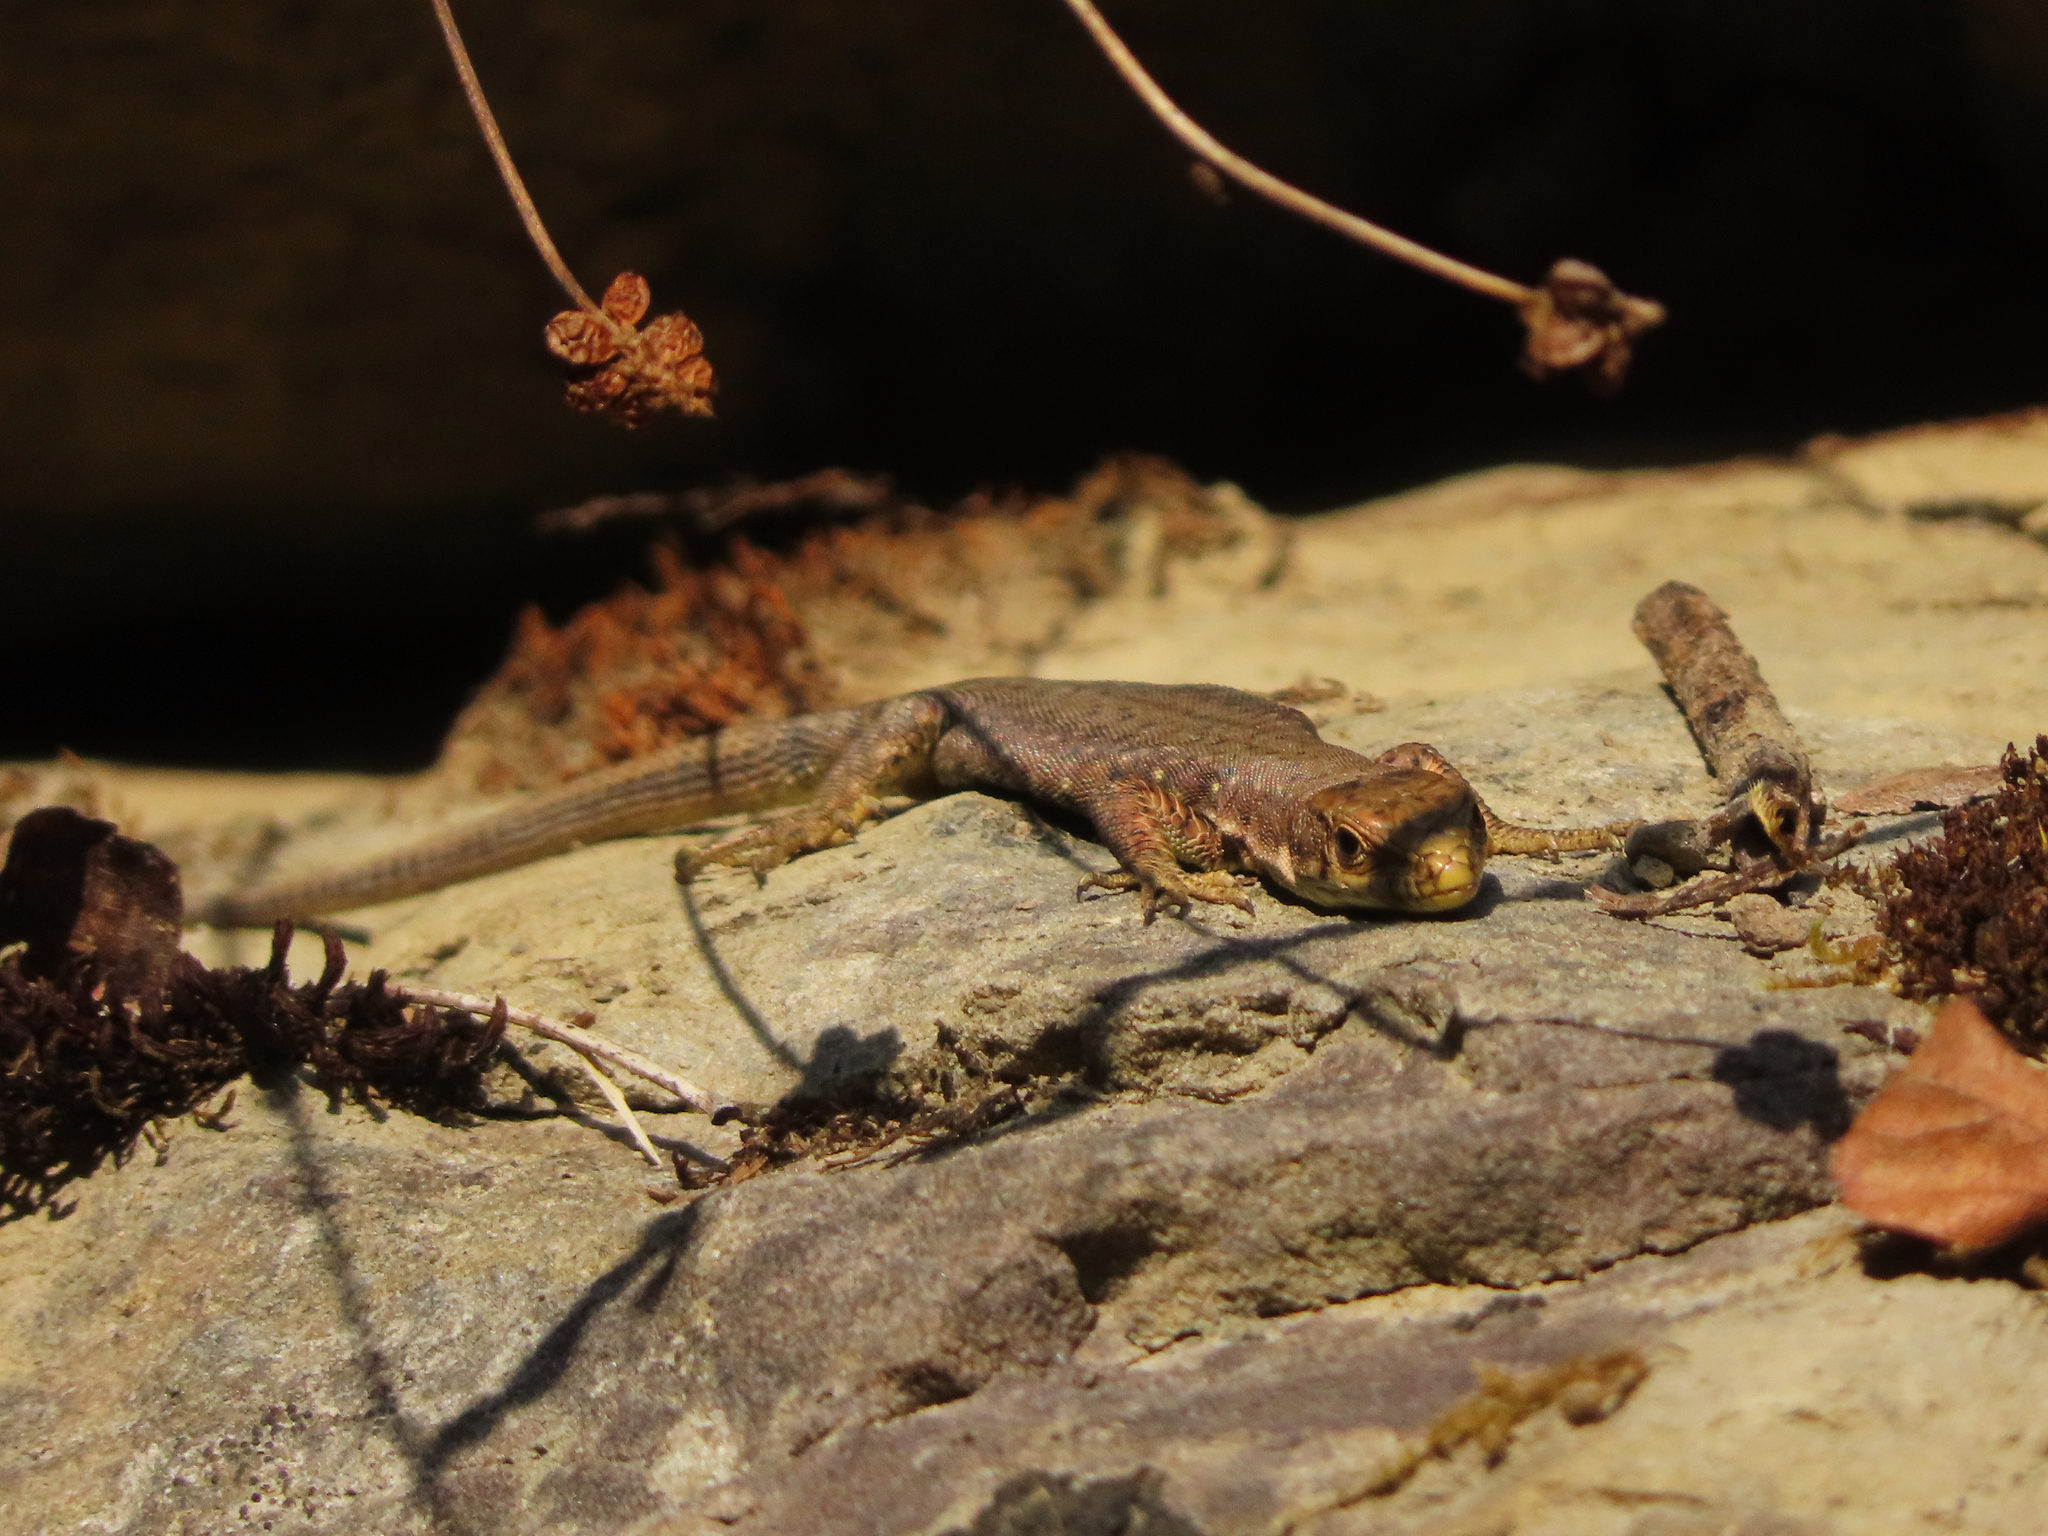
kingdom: Animalia
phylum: Chordata
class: Squamata
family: Lacertidae
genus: Darevskia
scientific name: Darevskia bithynica
